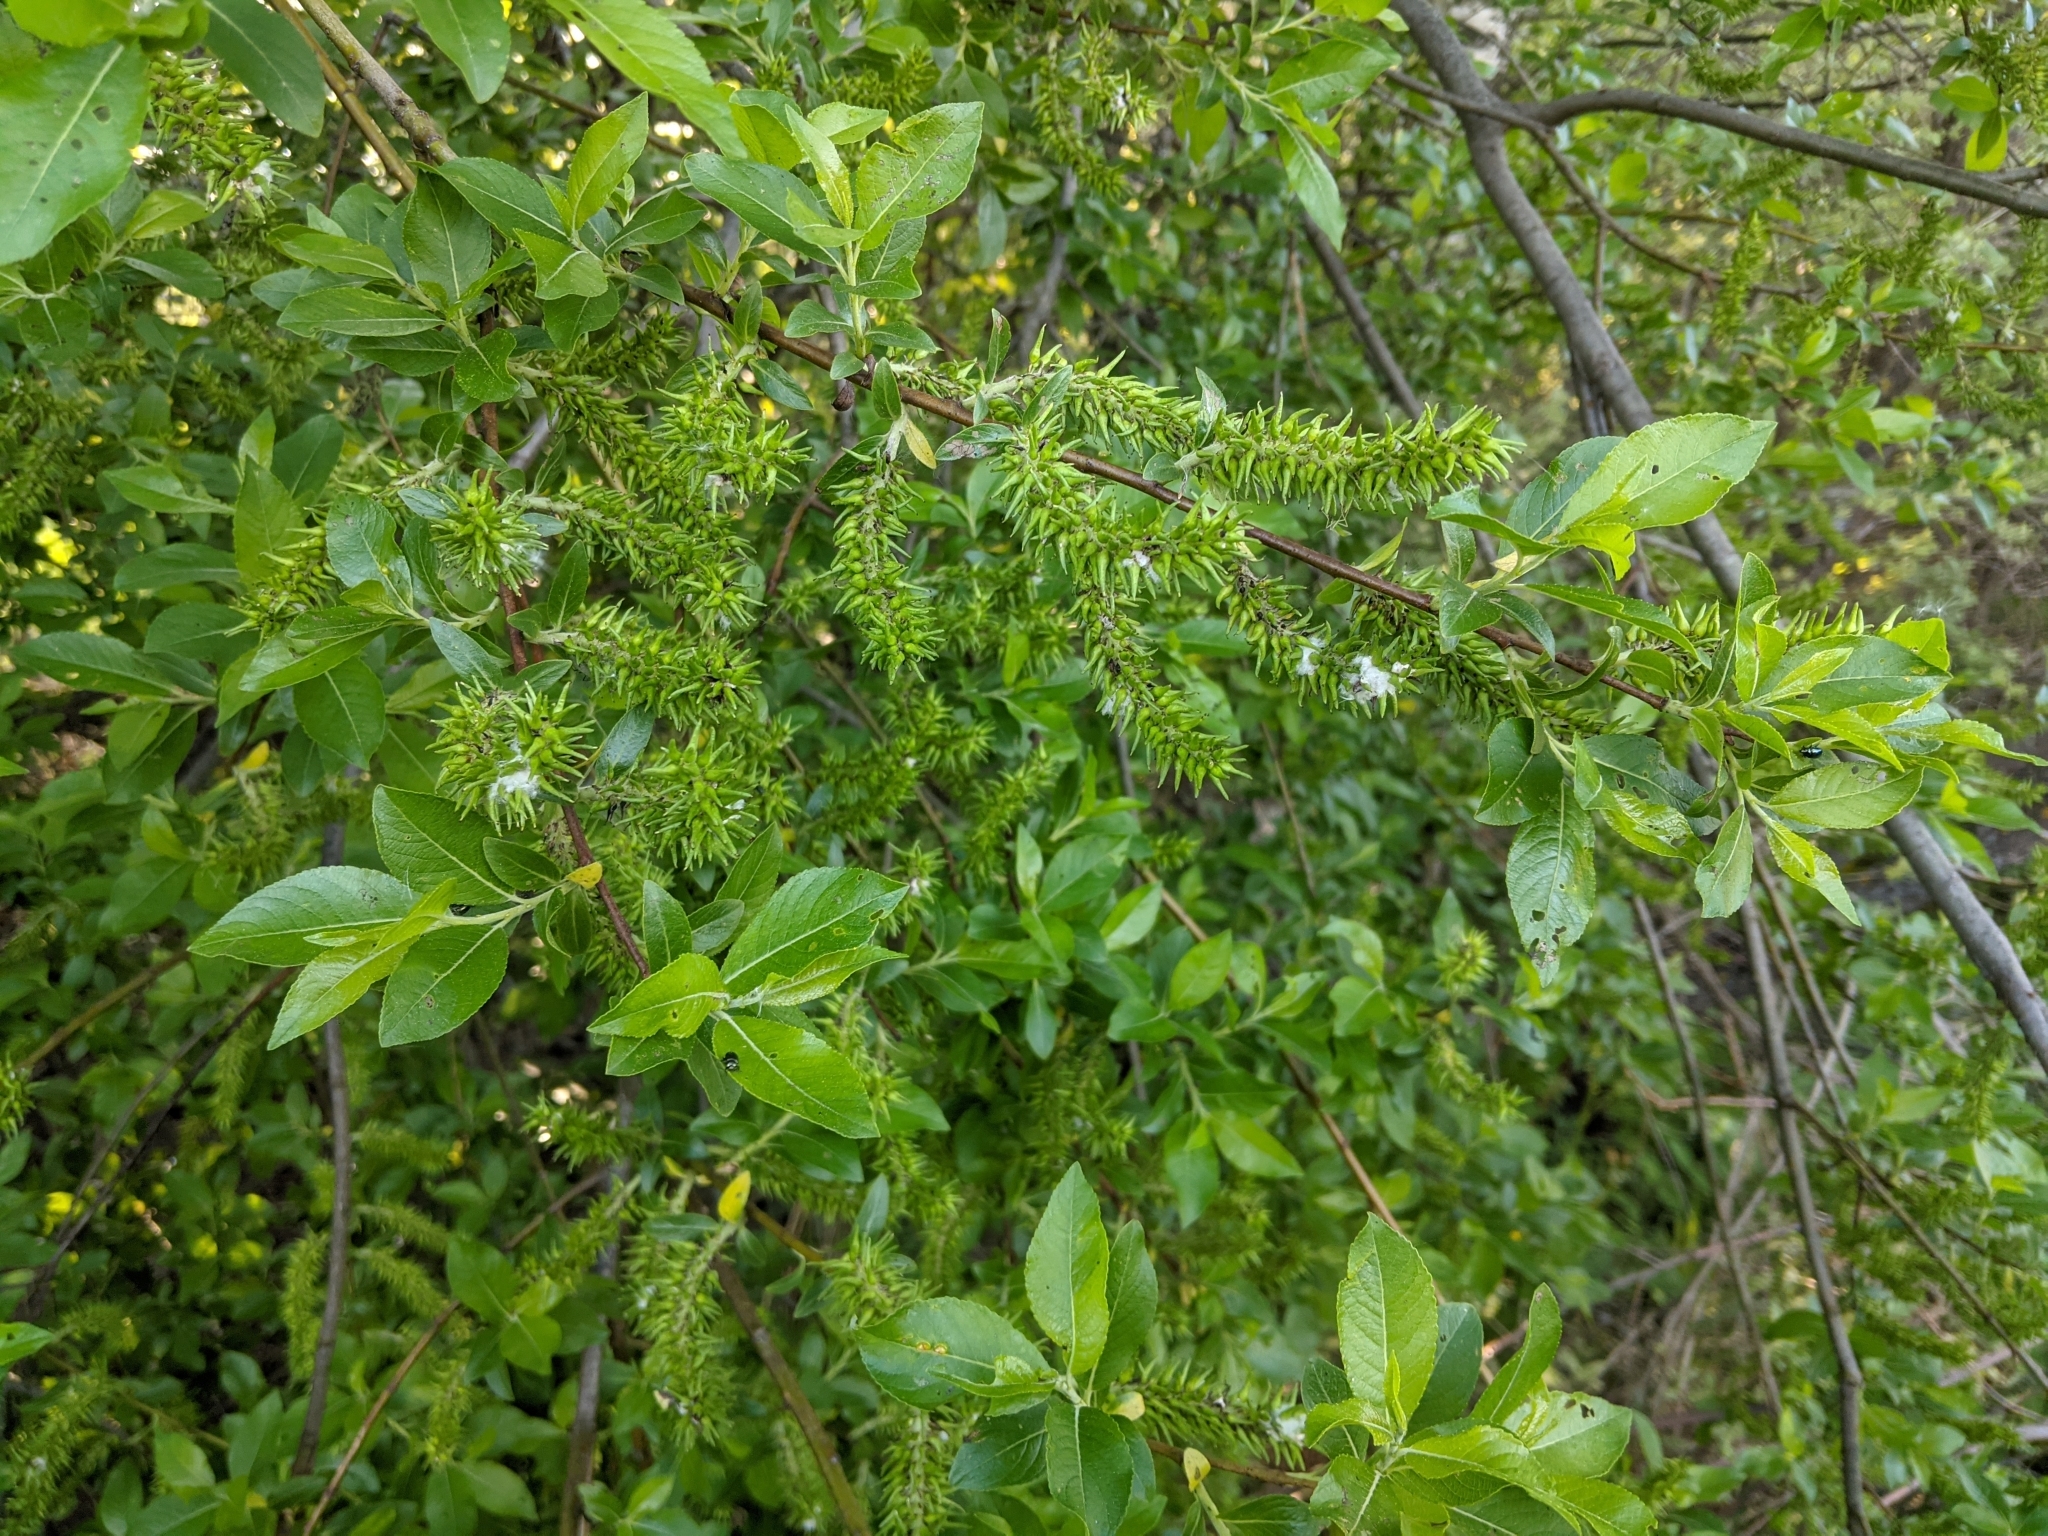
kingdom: Plantae
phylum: Tracheophyta
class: Magnoliopsida
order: Malpighiales
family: Salicaceae
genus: Salix
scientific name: Salix myrsinifolia
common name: Dark-leaved willow
